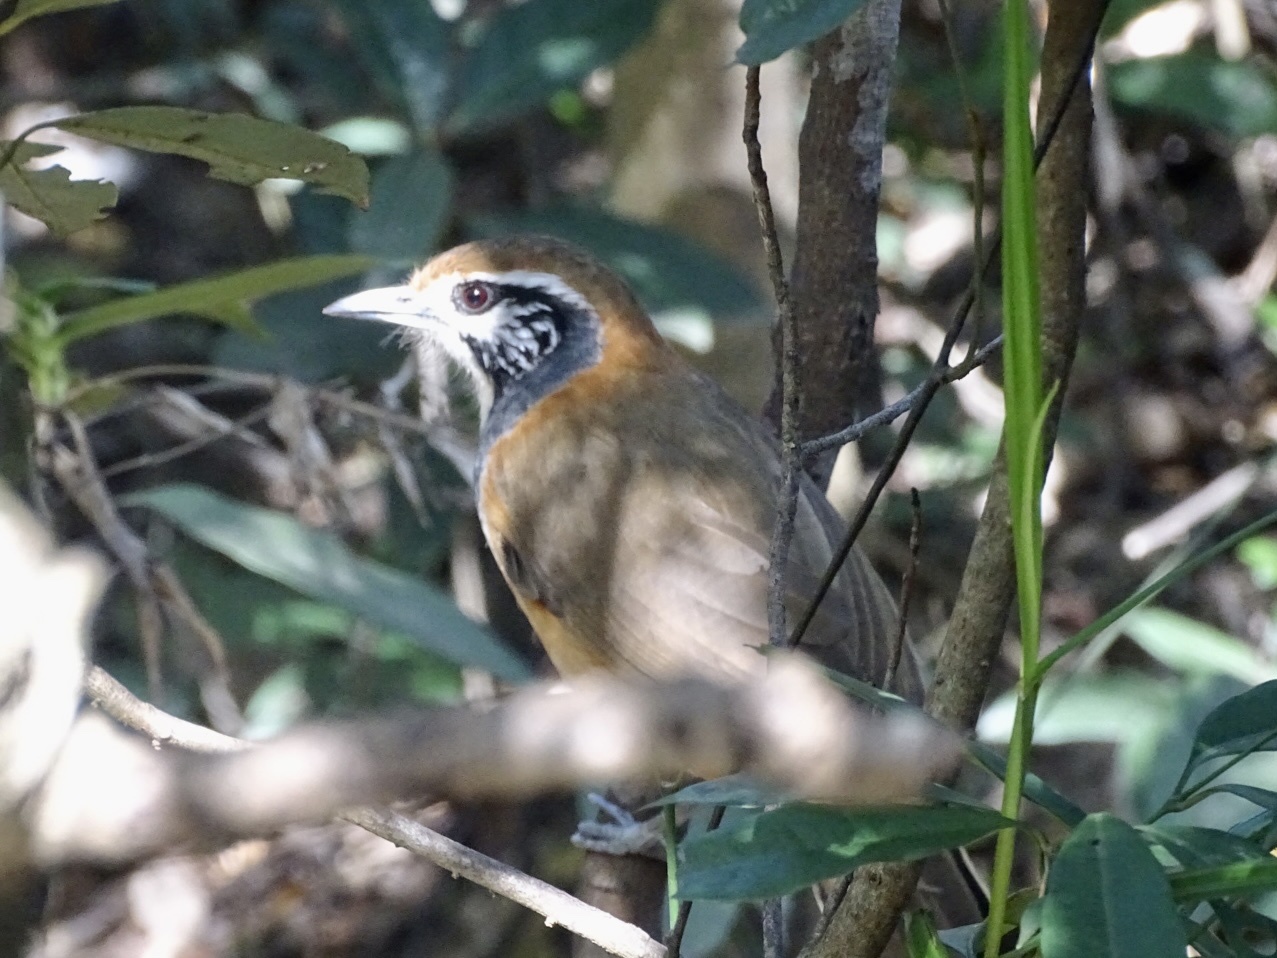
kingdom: Animalia
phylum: Chordata
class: Aves
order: Passeriformes
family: Leiothrichidae
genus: Garrulax
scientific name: Garrulax pectoralis
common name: Greater necklaced laughingthrush
